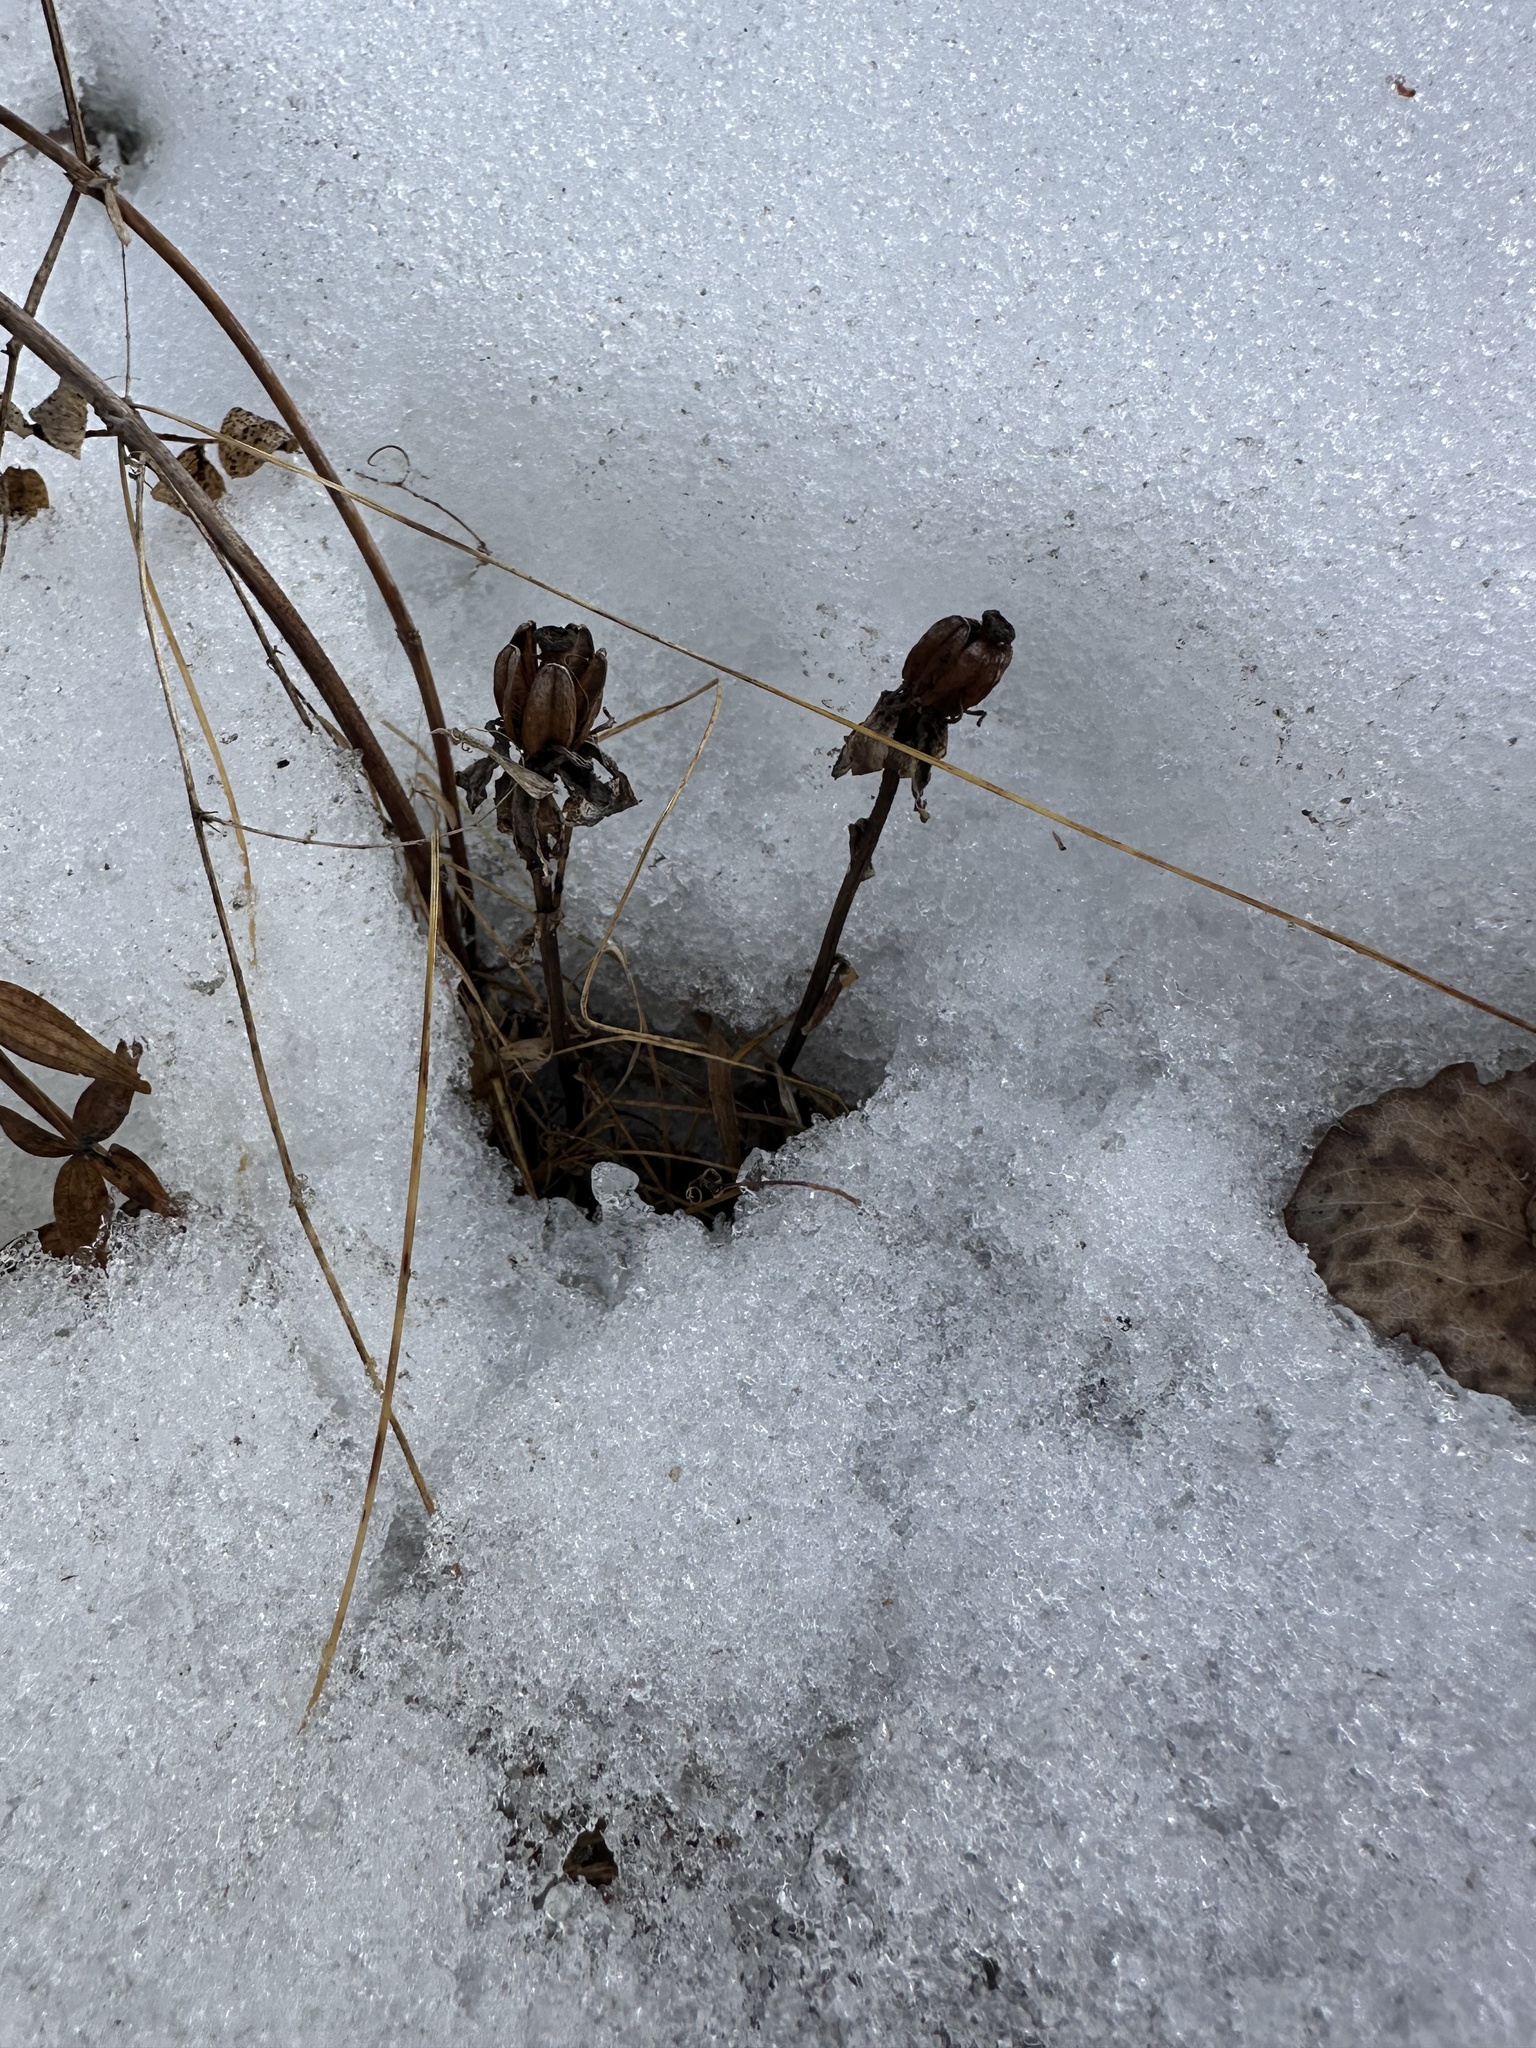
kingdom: Plantae
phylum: Tracheophyta
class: Magnoliopsida
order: Ericales
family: Ericaceae
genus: Monotropa
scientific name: Monotropa uniflora
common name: Convulsion root
